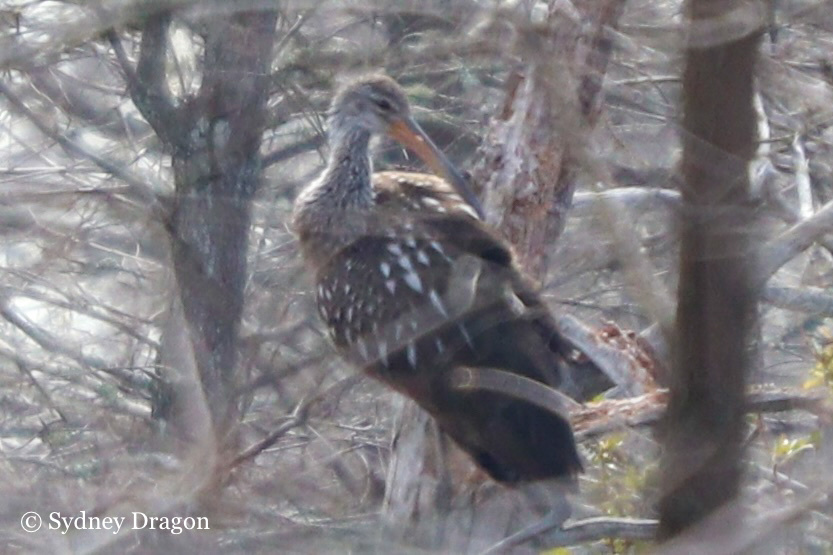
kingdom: Animalia
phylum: Chordata
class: Aves
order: Gruiformes
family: Aramidae
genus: Aramus
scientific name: Aramus guarauna
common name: Limpkin
